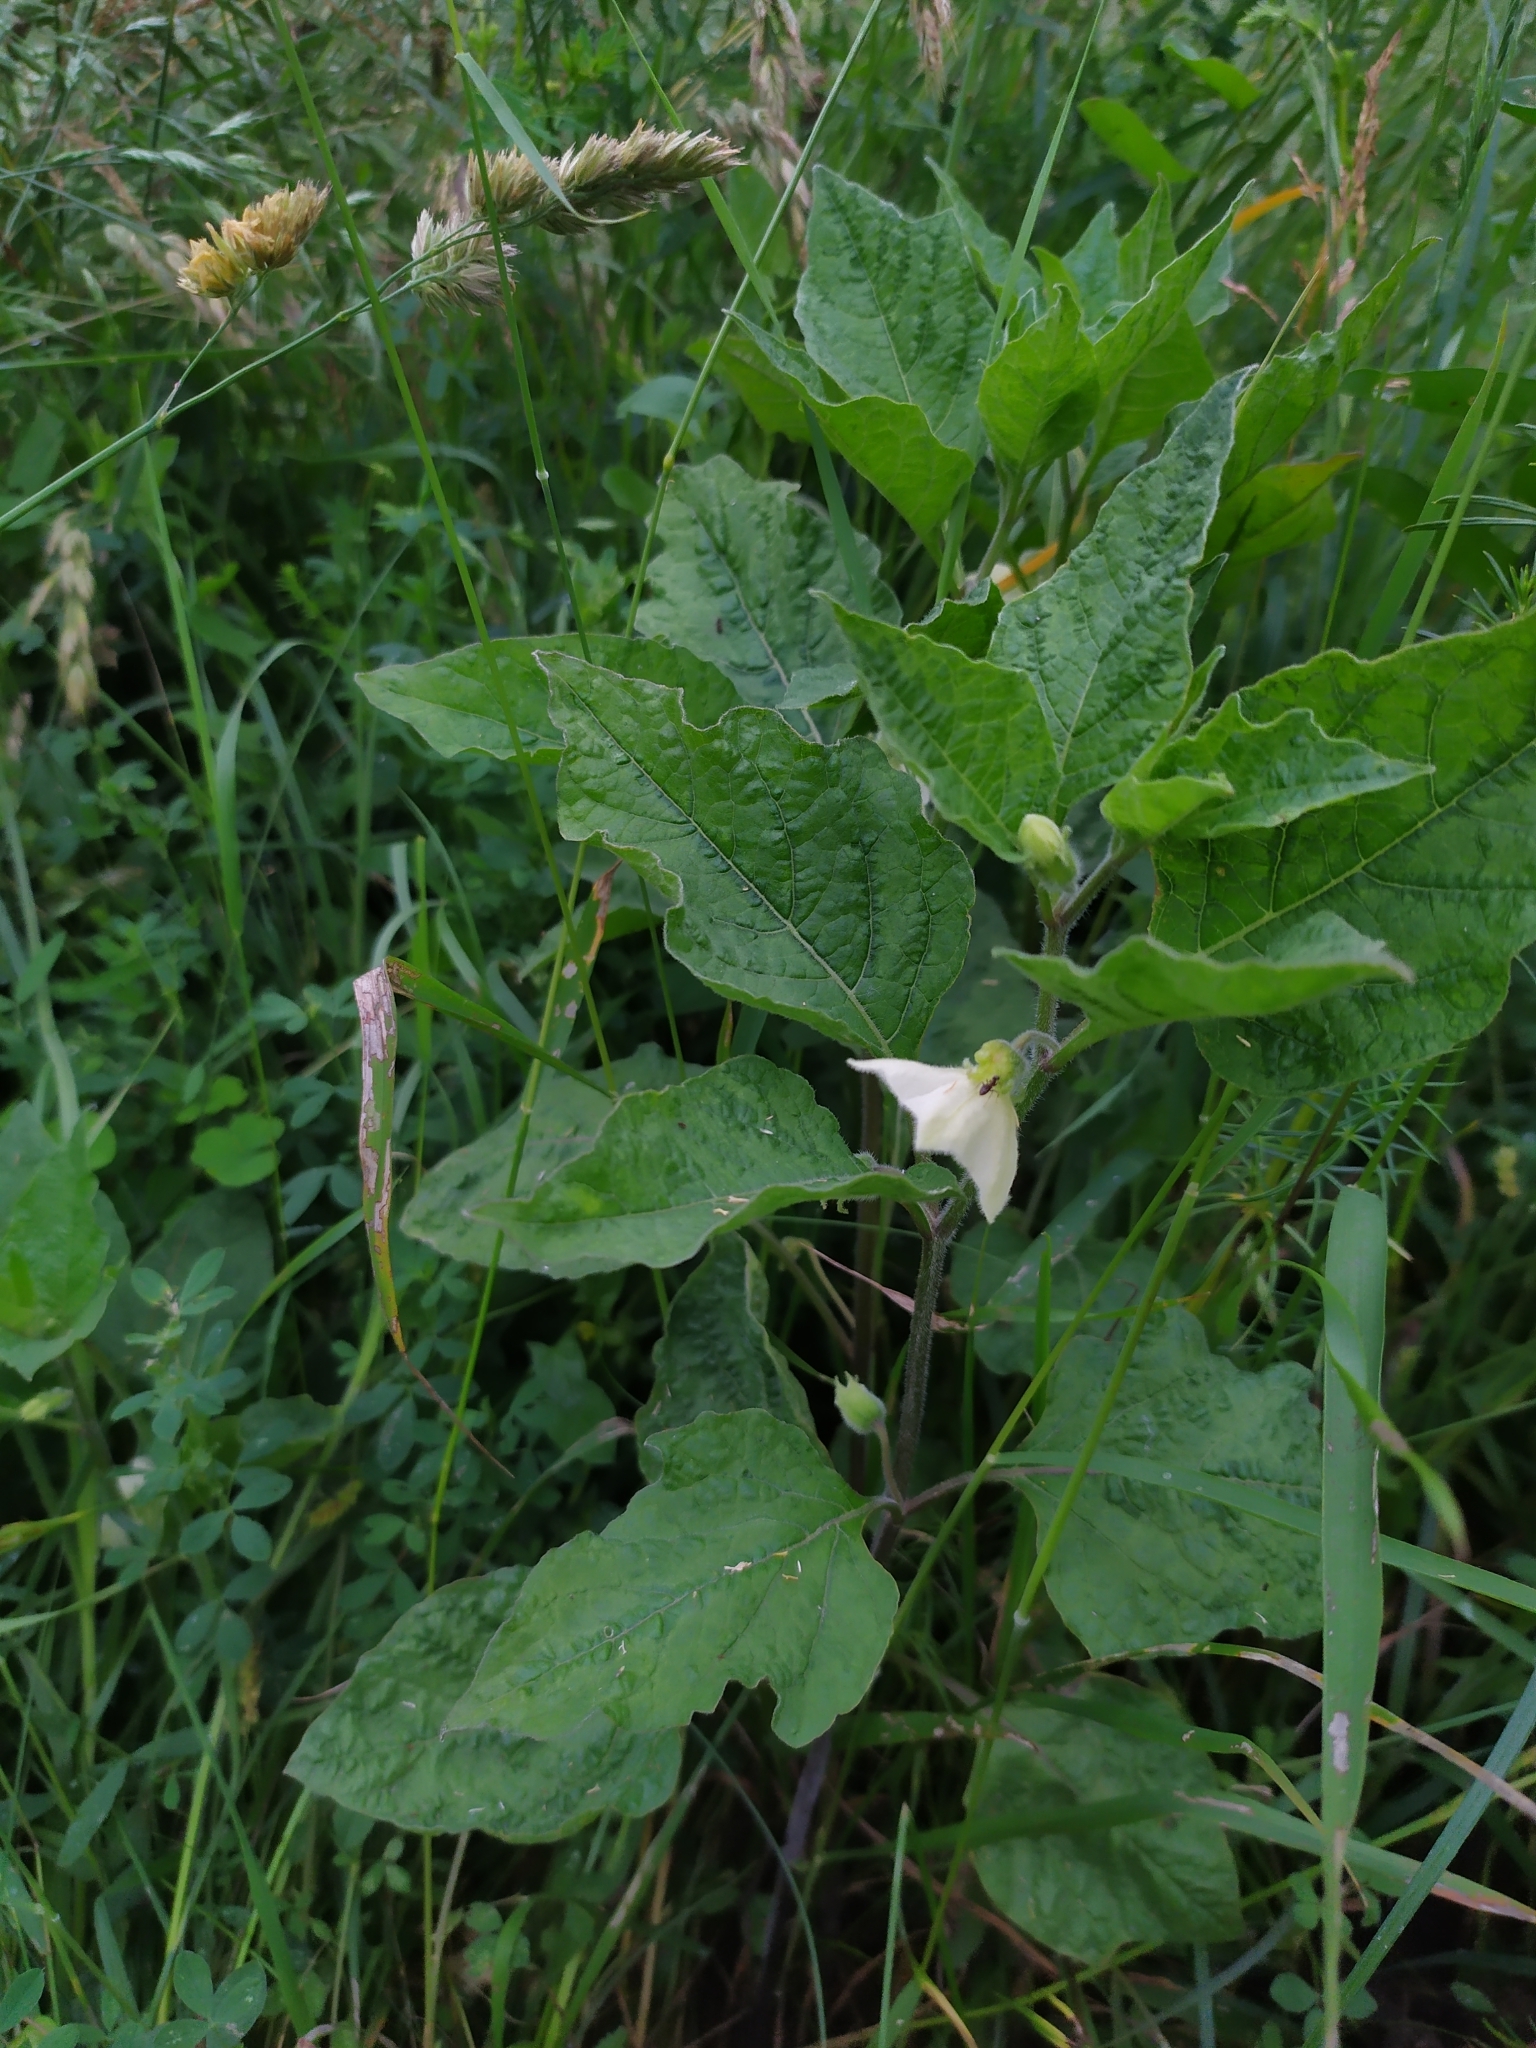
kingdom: Plantae
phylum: Tracheophyta
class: Magnoliopsida
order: Solanales
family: Solanaceae
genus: Alkekengi
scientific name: Alkekengi officinarum
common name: Japanese-lantern
